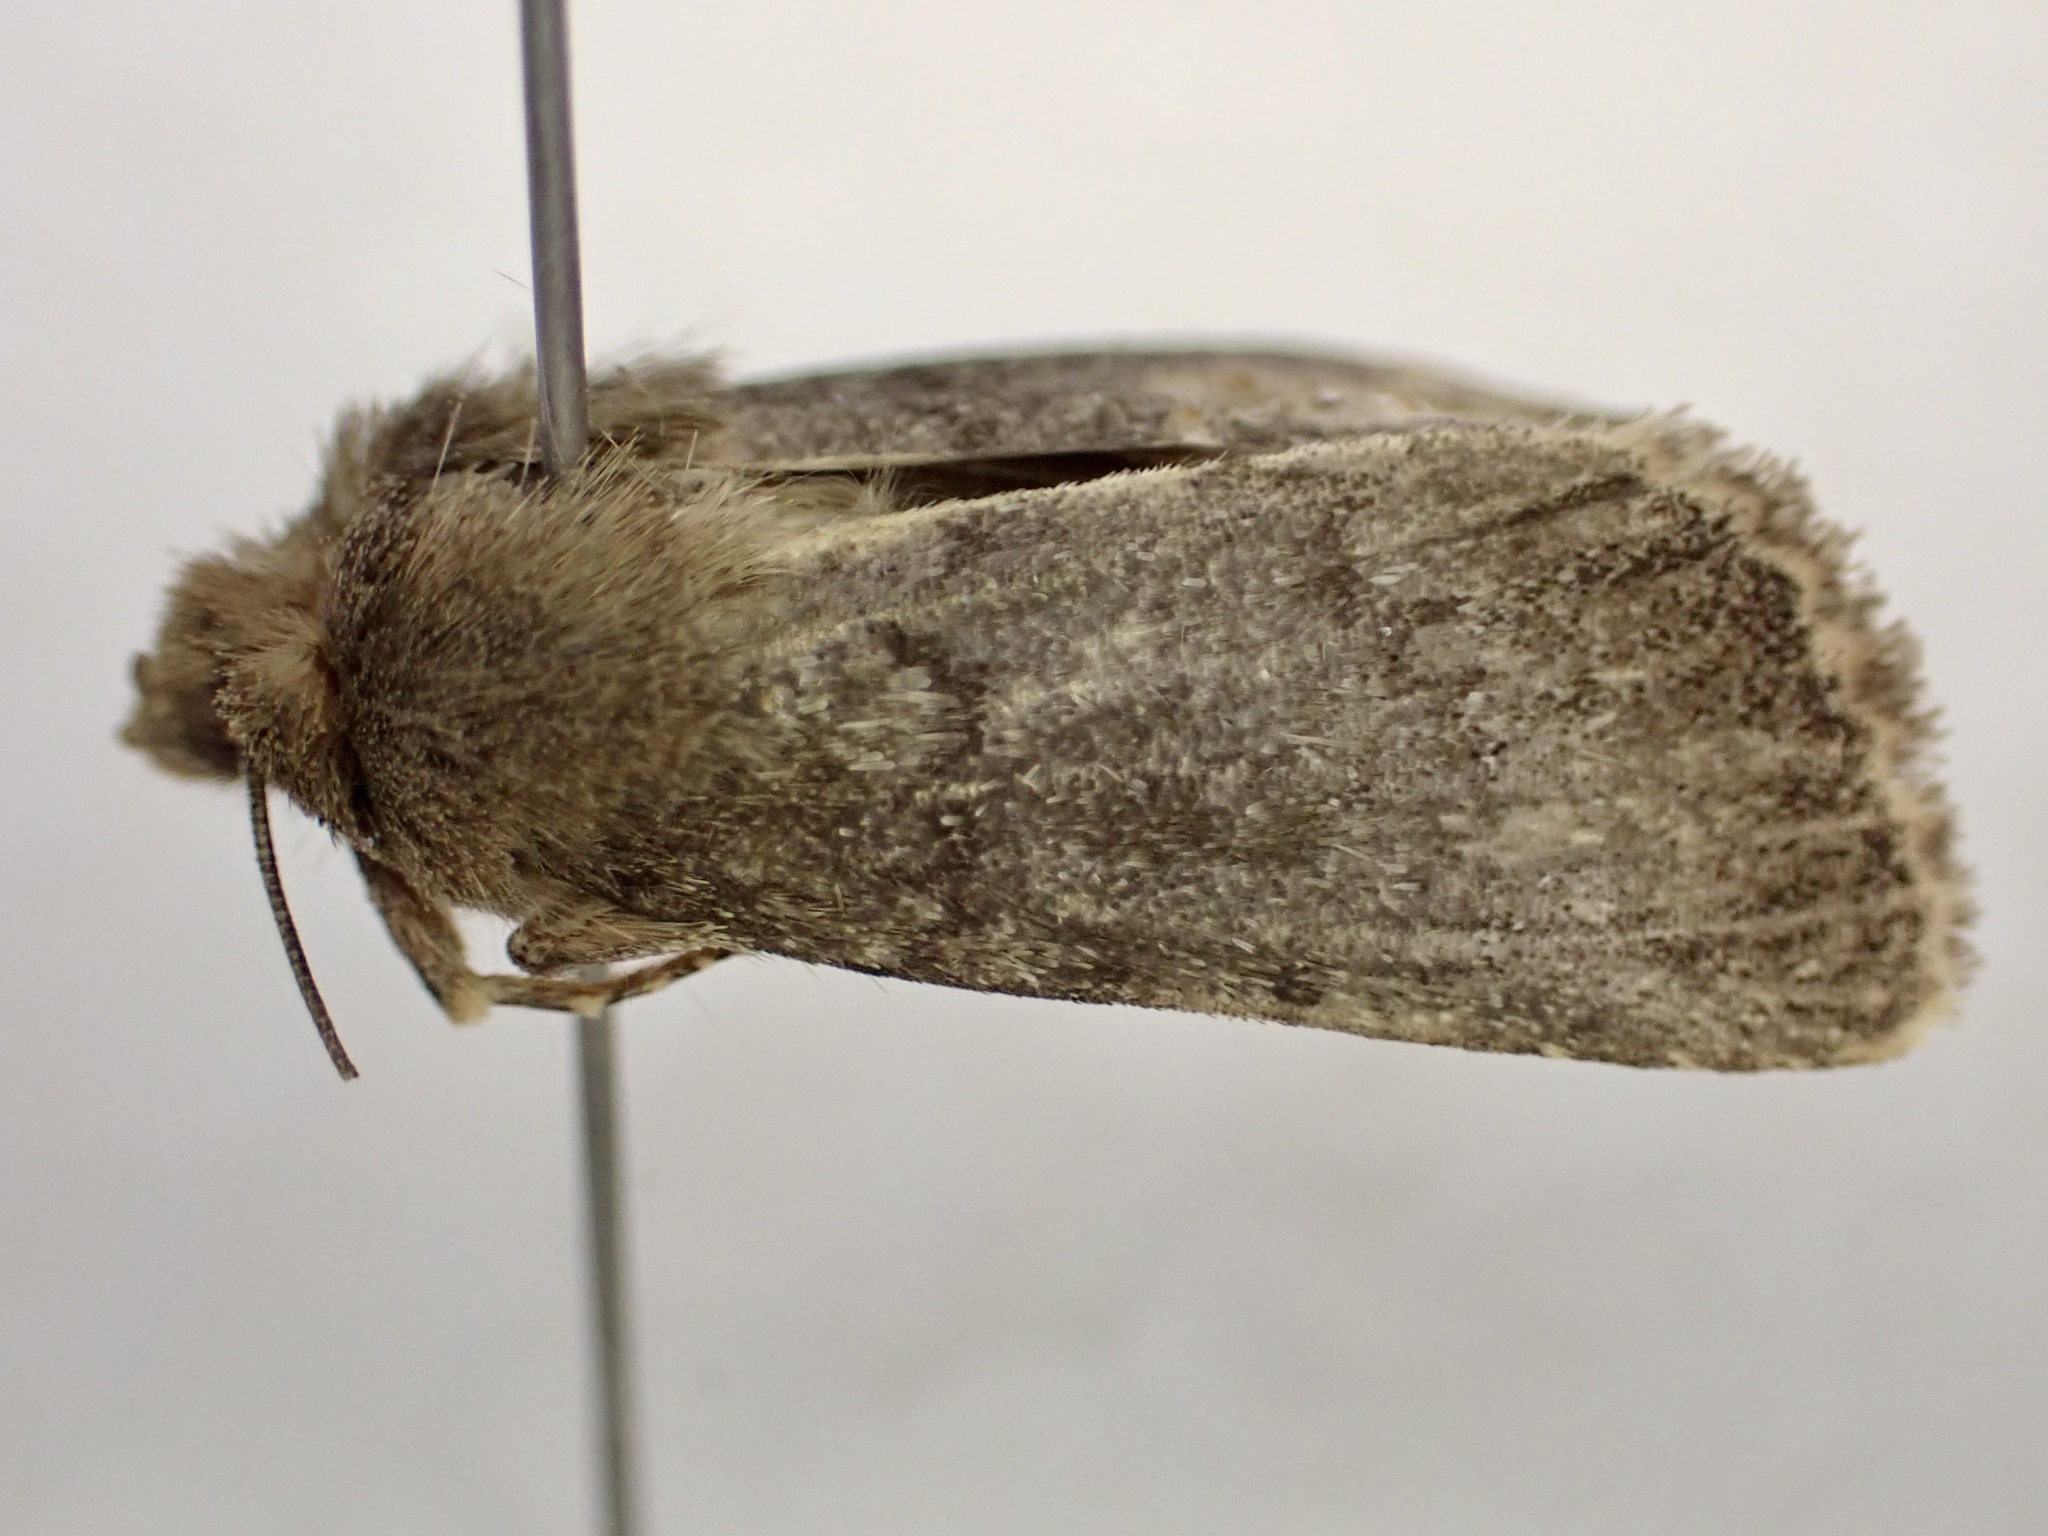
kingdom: Animalia
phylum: Arthropoda
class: Insecta
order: Lepidoptera
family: Noctuidae
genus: Ichneutica
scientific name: Ichneutica moderata
